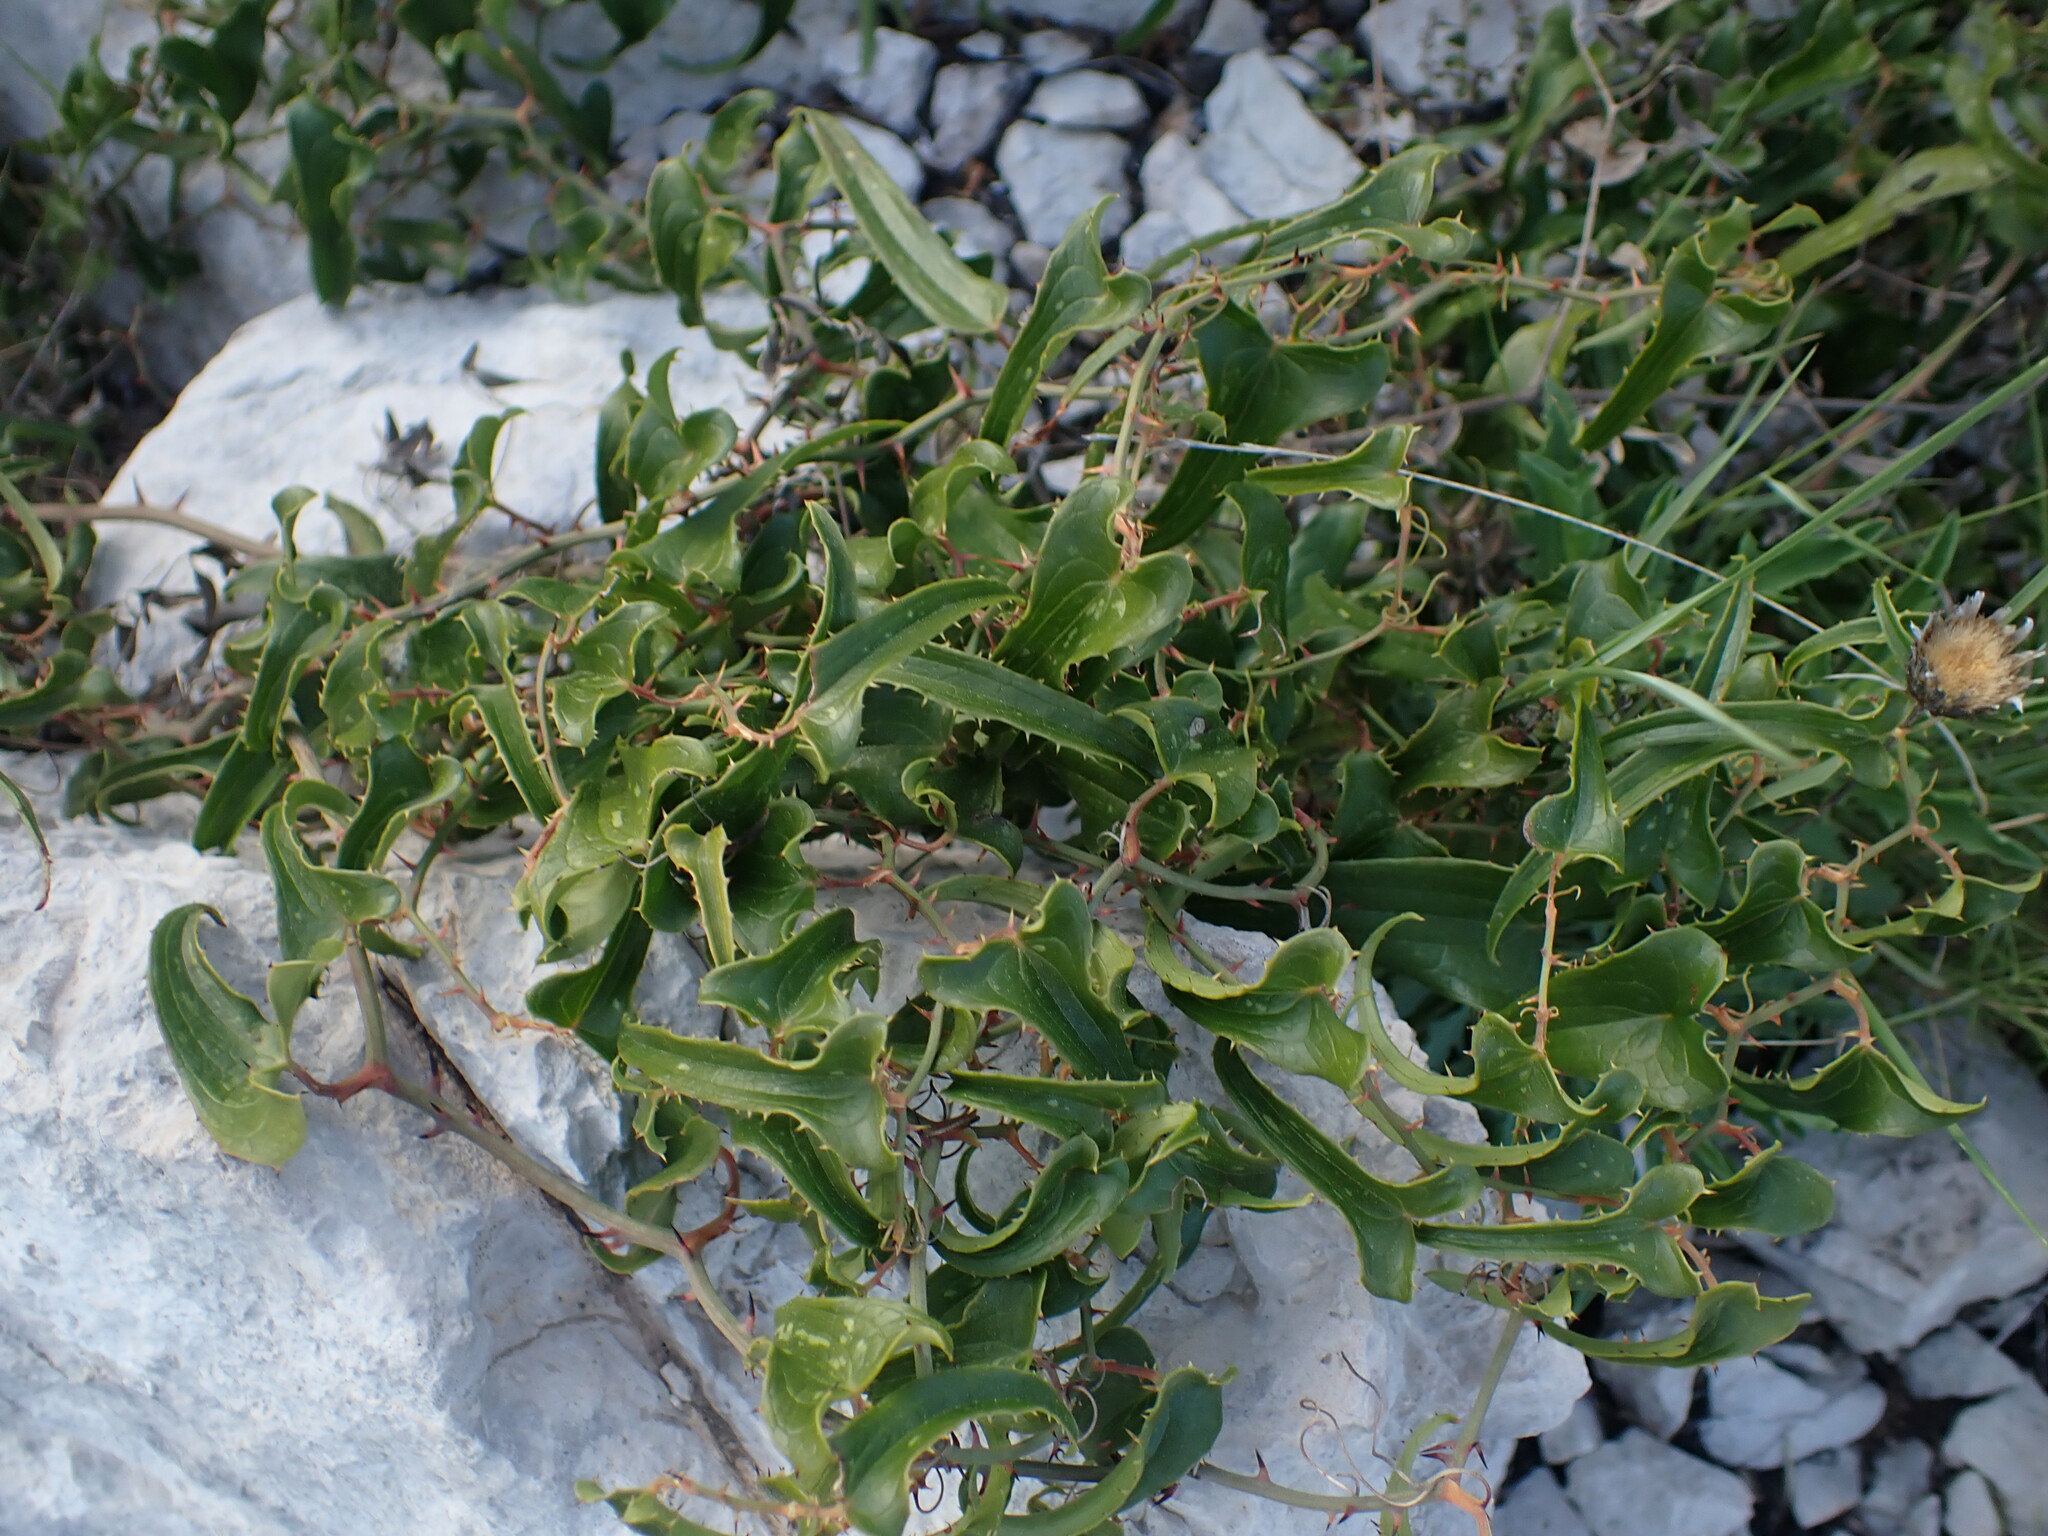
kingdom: Plantae
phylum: Tracheophyta
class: Liliopsida
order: Liliales
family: Smilacaceae
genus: Smilax
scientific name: Smilax aspera
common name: Common smilax
